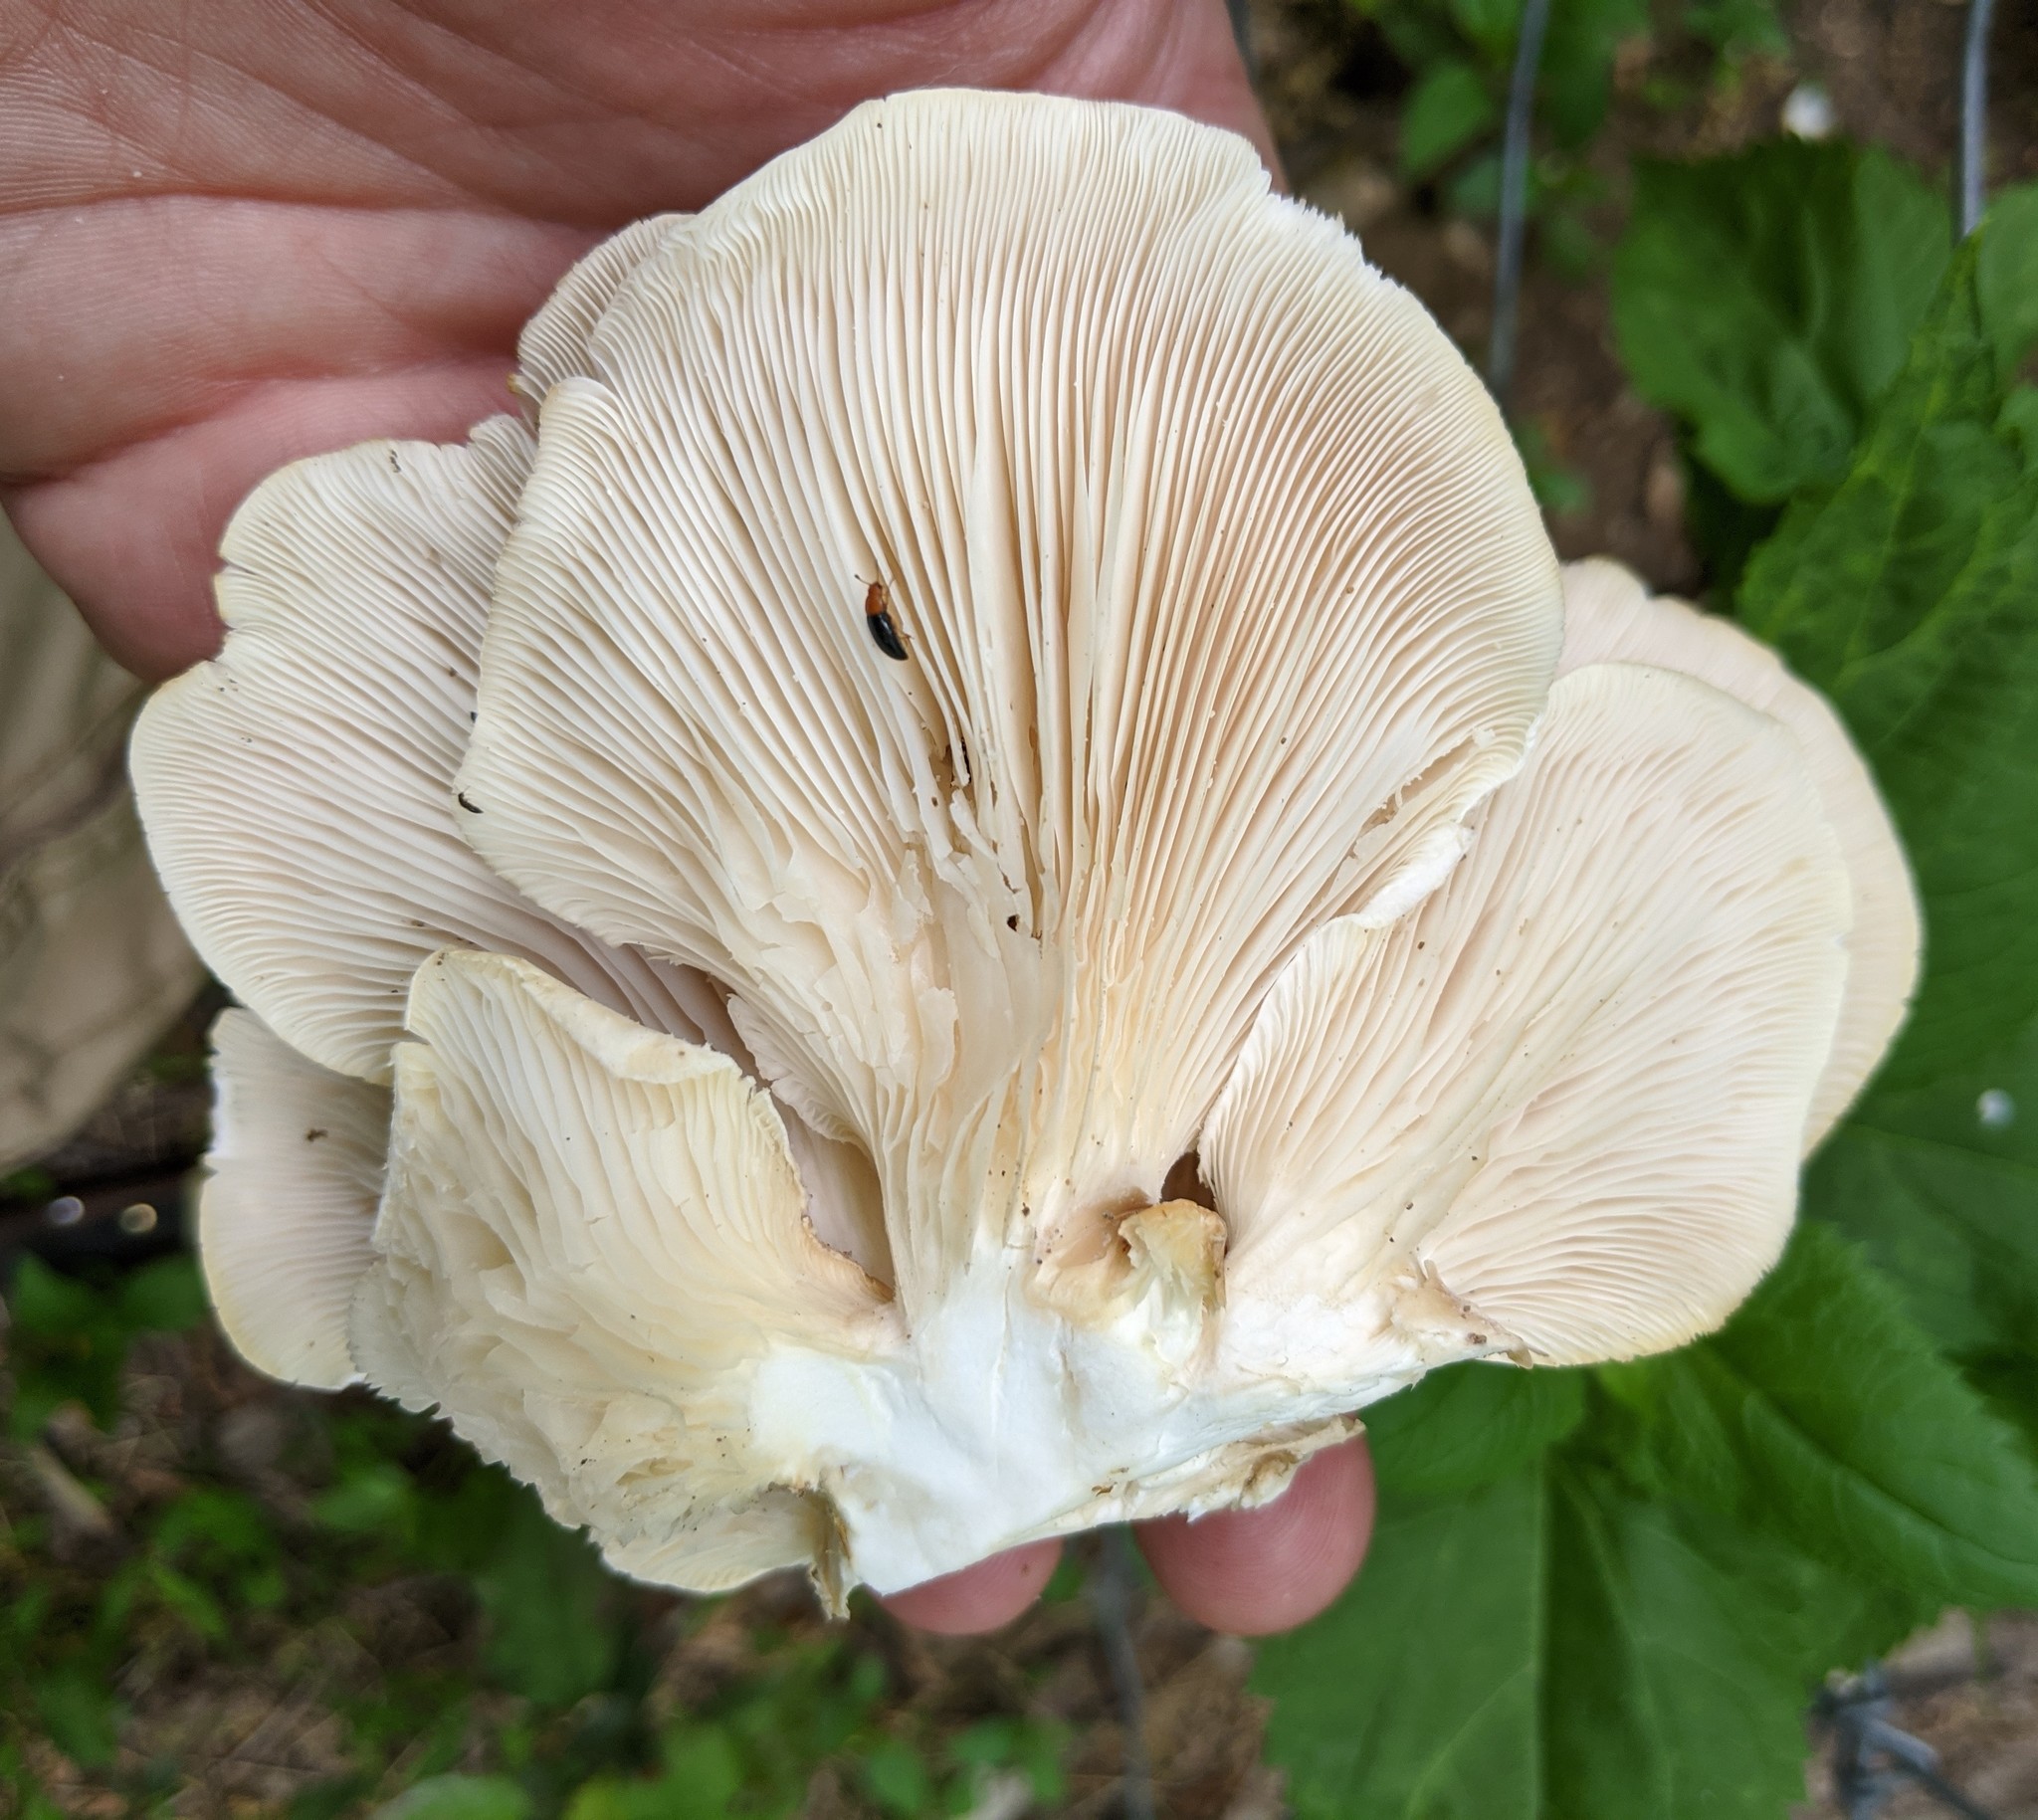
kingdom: Fungi
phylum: Basidiomycota
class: Agaricomycetes
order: Agaricales
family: Pleurotaceae
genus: Pleurotus
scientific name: Pleurotus ostreatus
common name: Oyster mushroom
